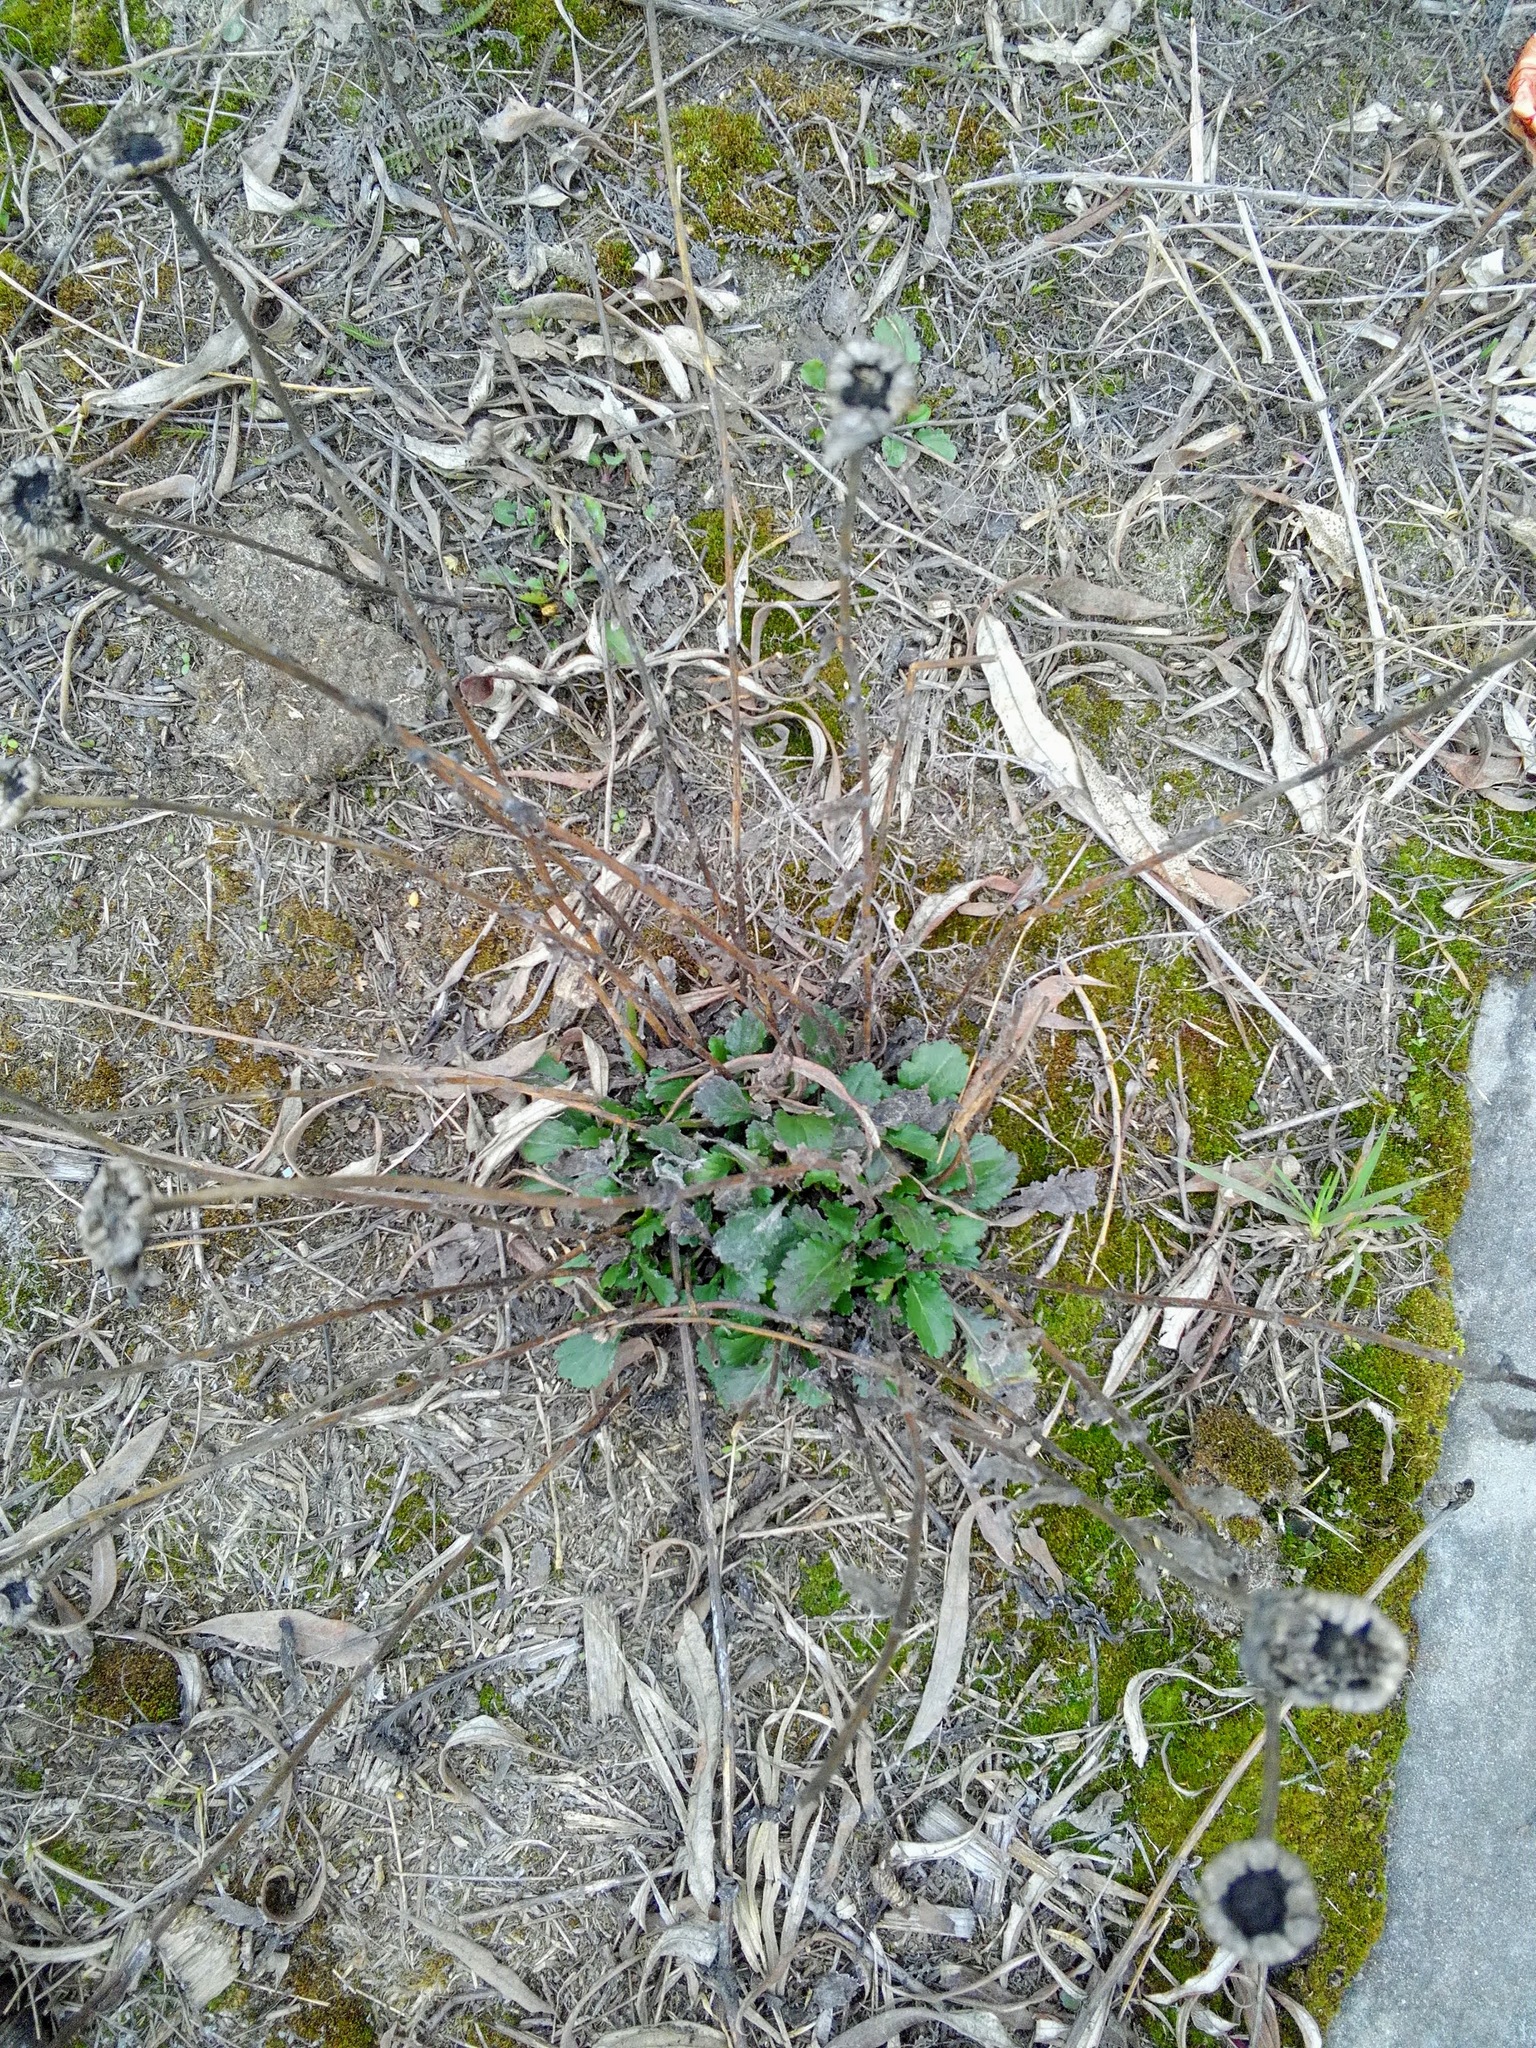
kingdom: Plantae
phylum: Tracheophyta
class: Magnoliopsida
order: Asterales
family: Asteraceae
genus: Leucanthemum
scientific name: Leucanthemum ircutianum
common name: Daisy
